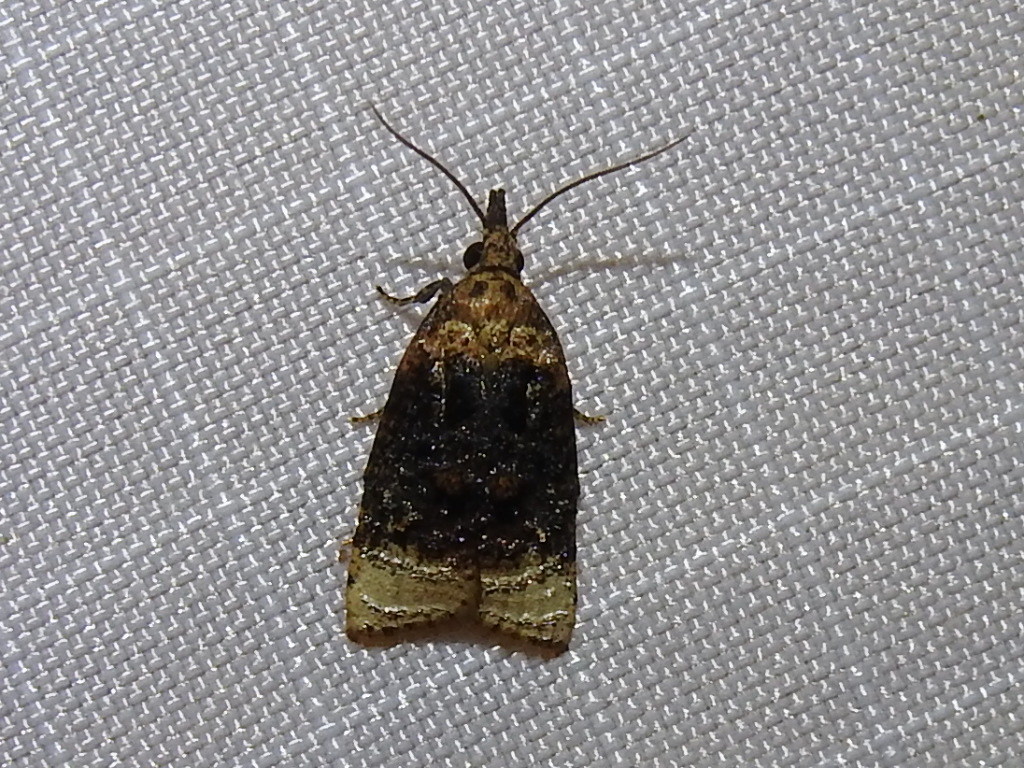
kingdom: Animalia
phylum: Arthropoda
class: Insecta
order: Lepidoptera
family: Tortricidae
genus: Platynota
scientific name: Platynota flavedana
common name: Black-shaded platynota moth
